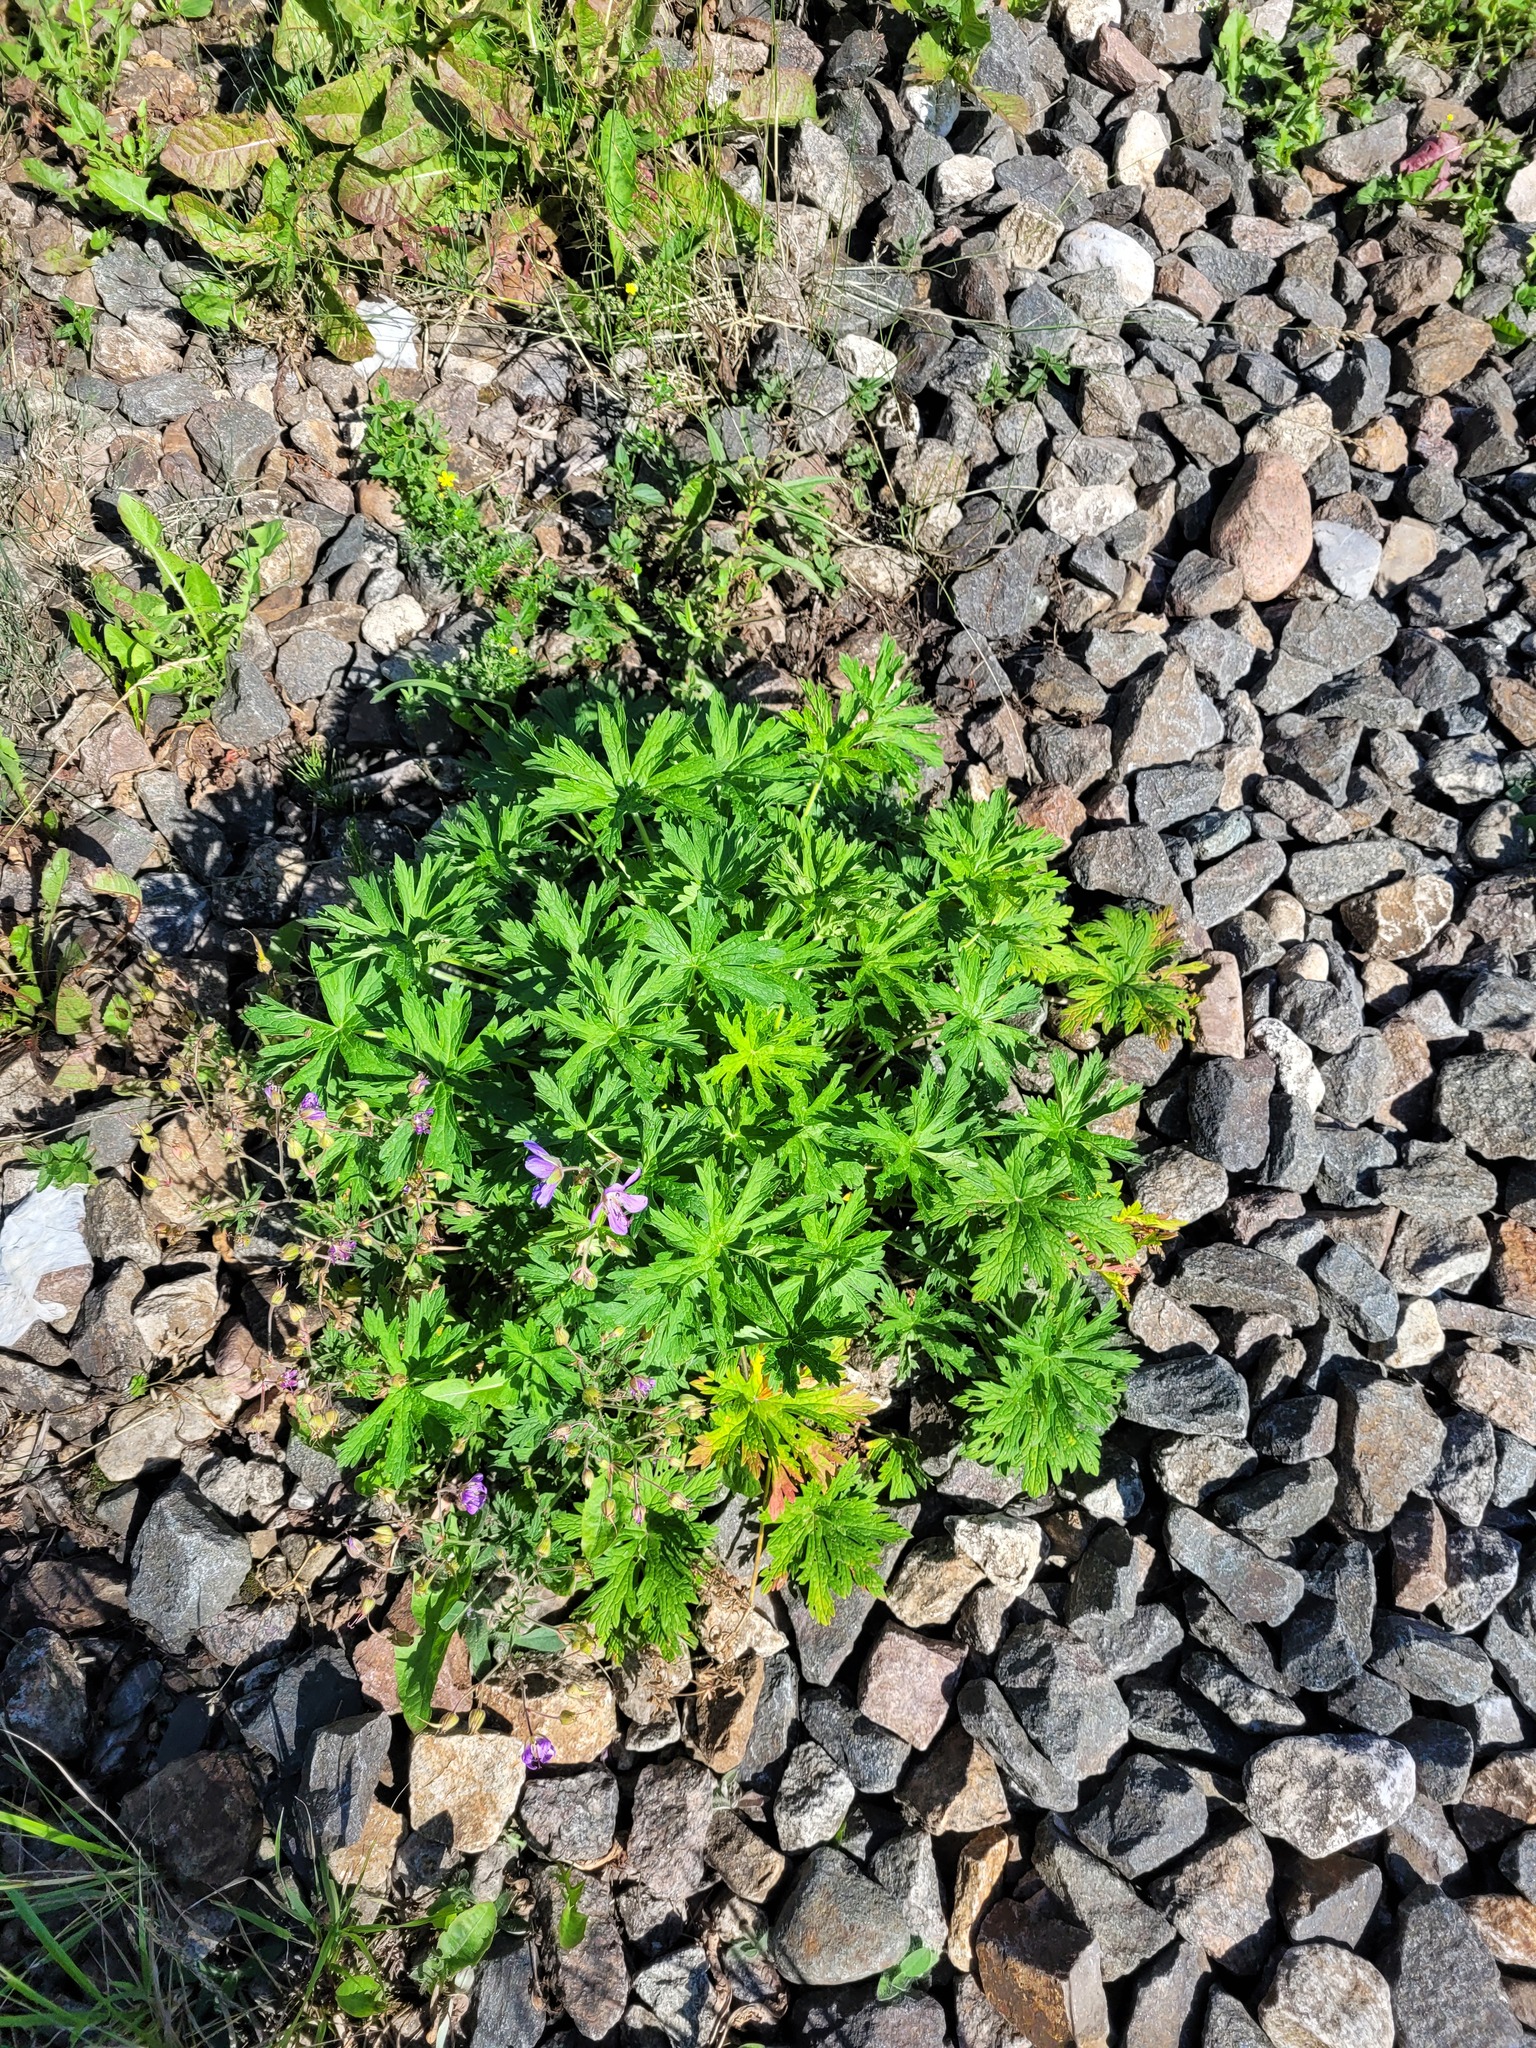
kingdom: Plantae
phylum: Tracheophyta
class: Magnoliopsida
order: Geraniales
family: Geraniaceae
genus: Geranium
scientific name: Geranium pratense
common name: Meadow crane's-bill
